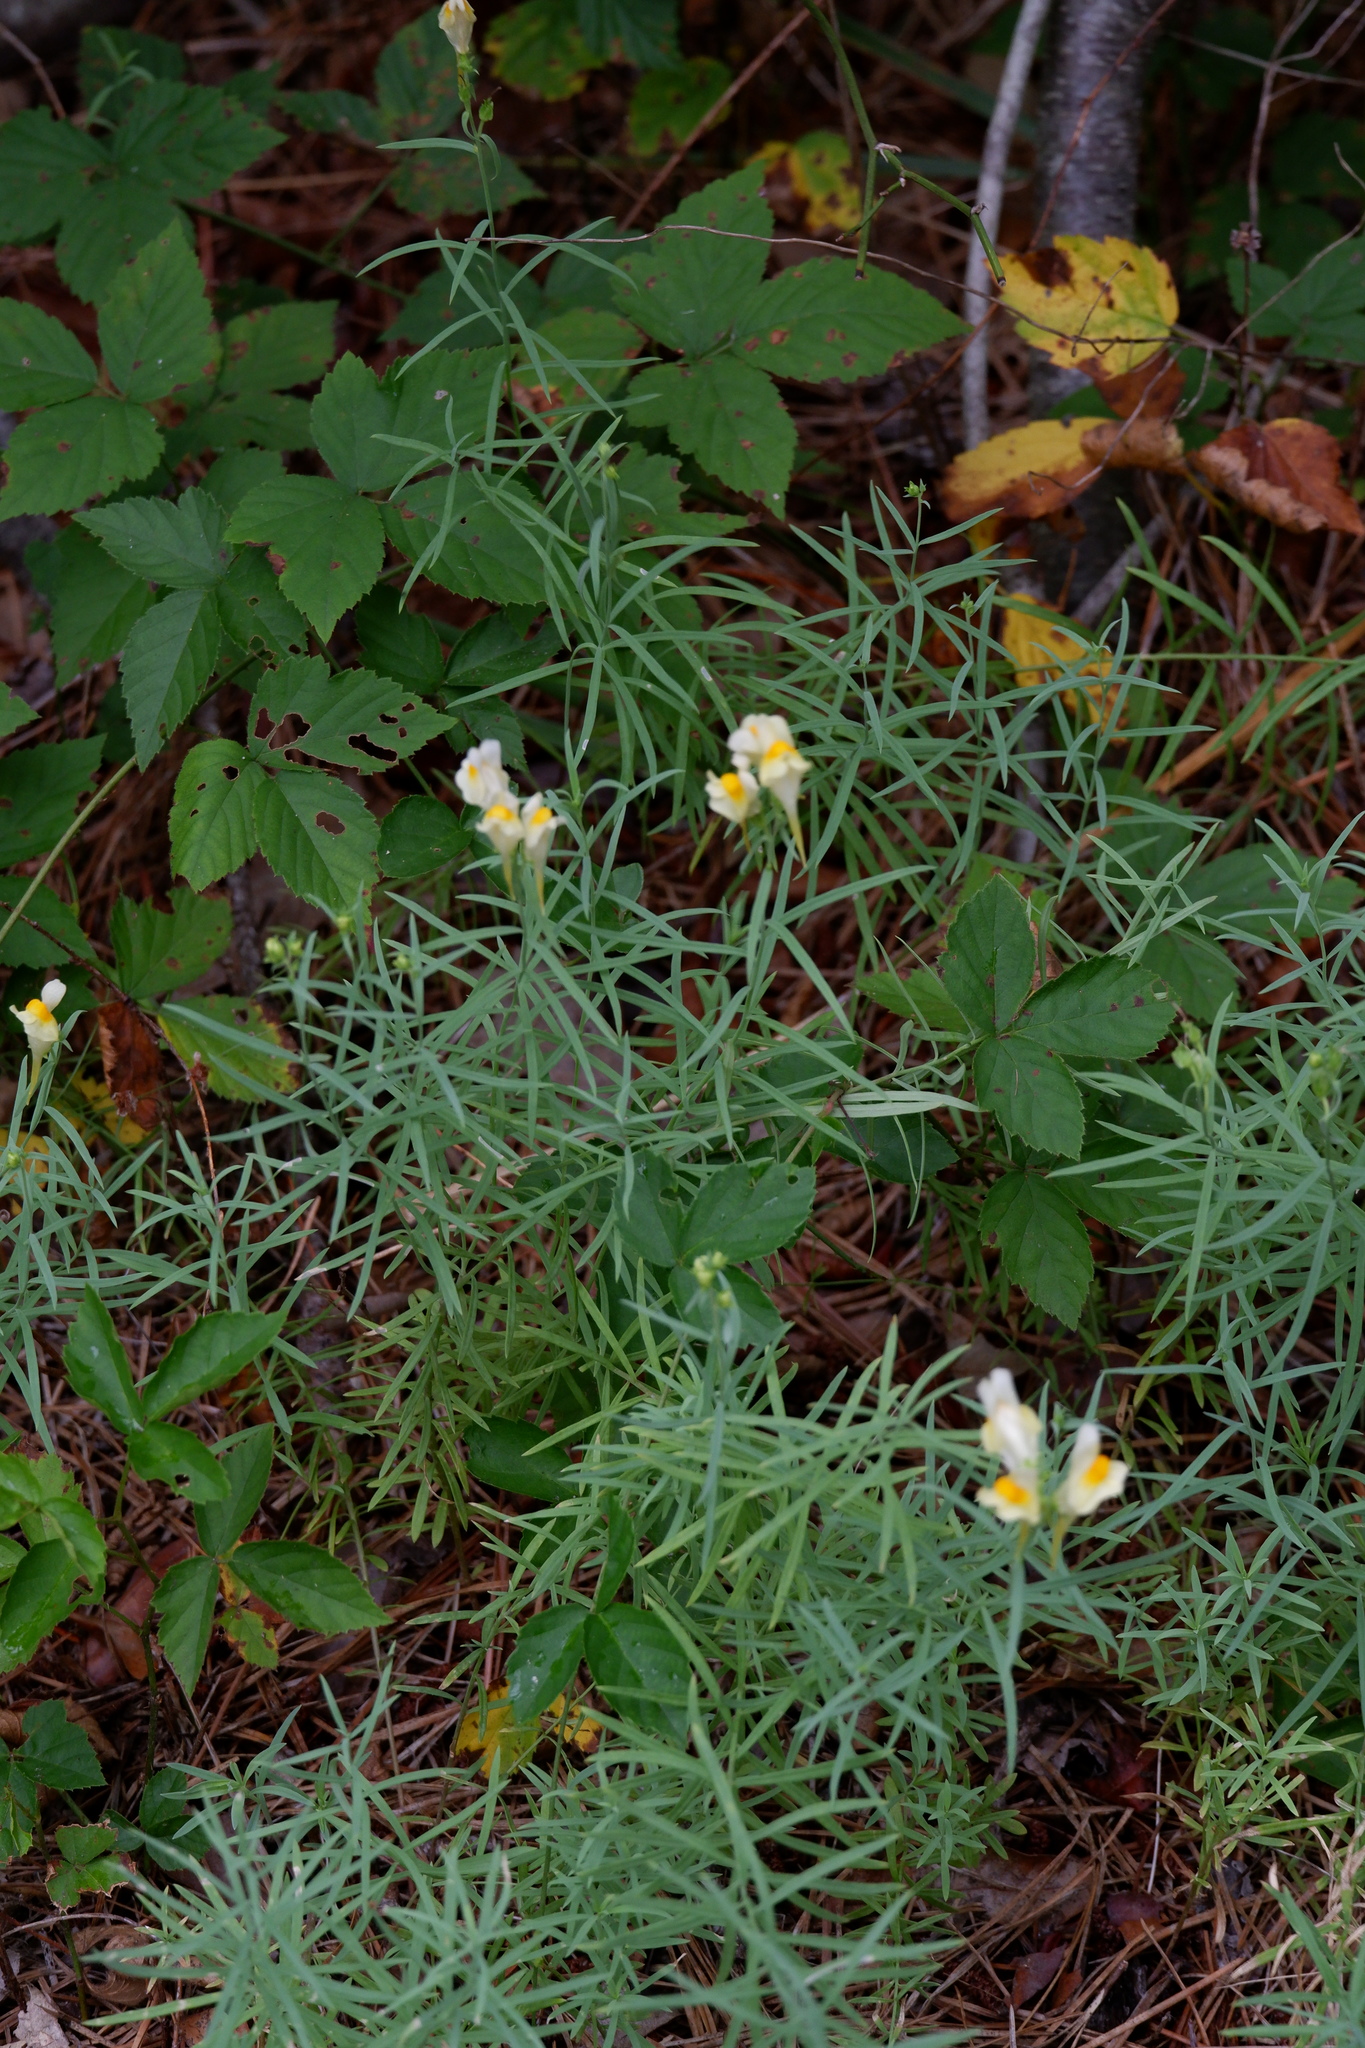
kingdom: Plantae
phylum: Tracheophyta
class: Magnoliopsida
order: Lamiales
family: Plantaginaceae
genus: Linaria
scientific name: Linaria vulgaris
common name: Butter and eggs
